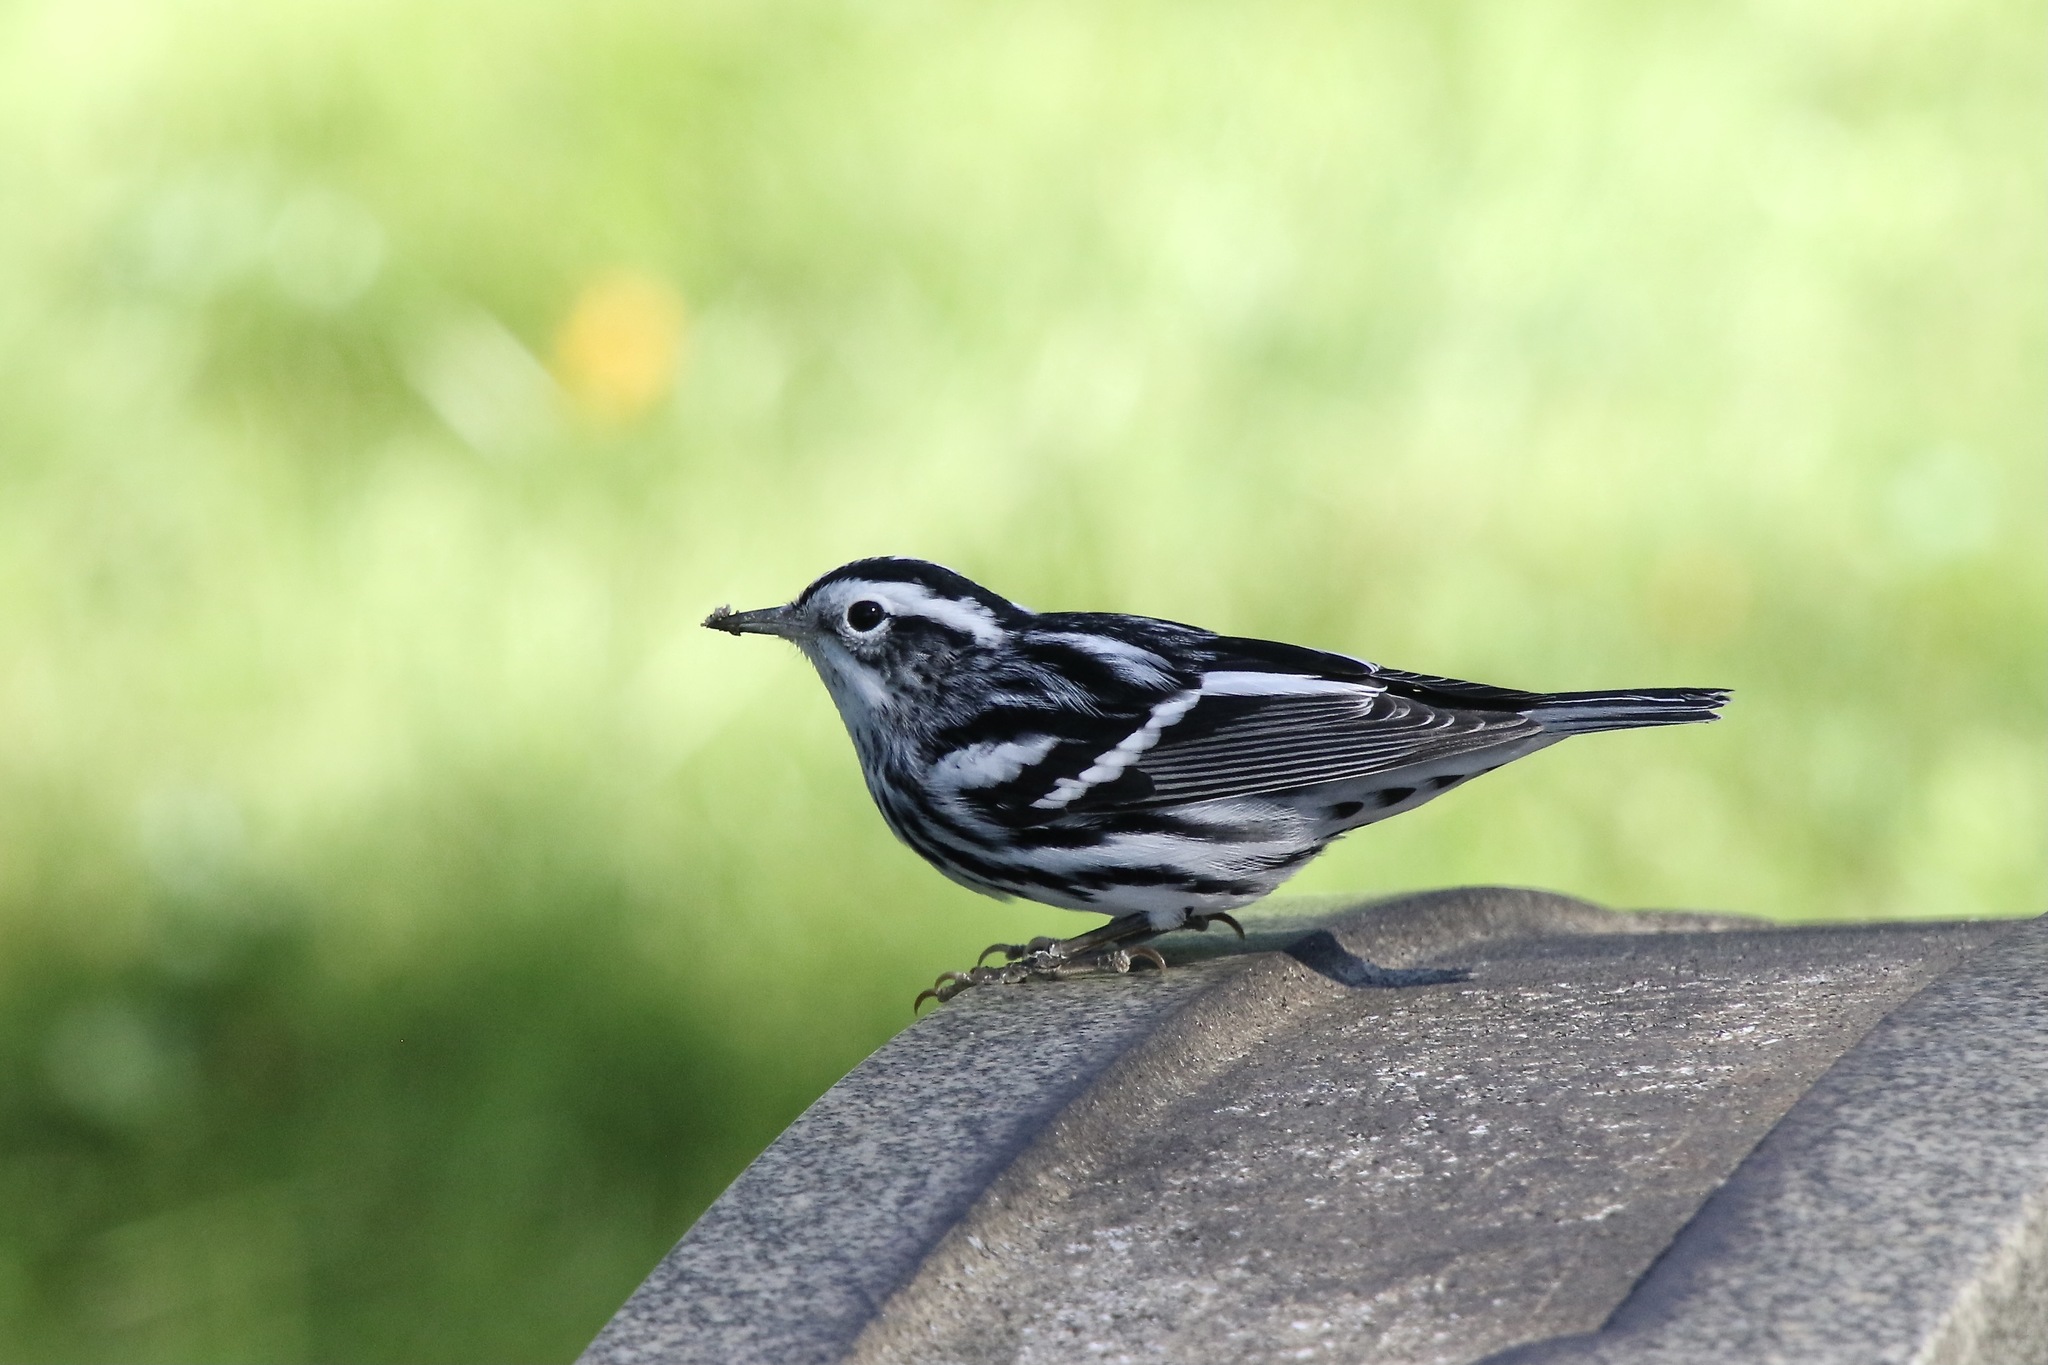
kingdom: Animalia
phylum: Chordata
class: Aves
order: Passeriformes
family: Parulidae
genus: Mniotilta
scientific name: Mniotilta varia
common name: Black-and-white warbler
